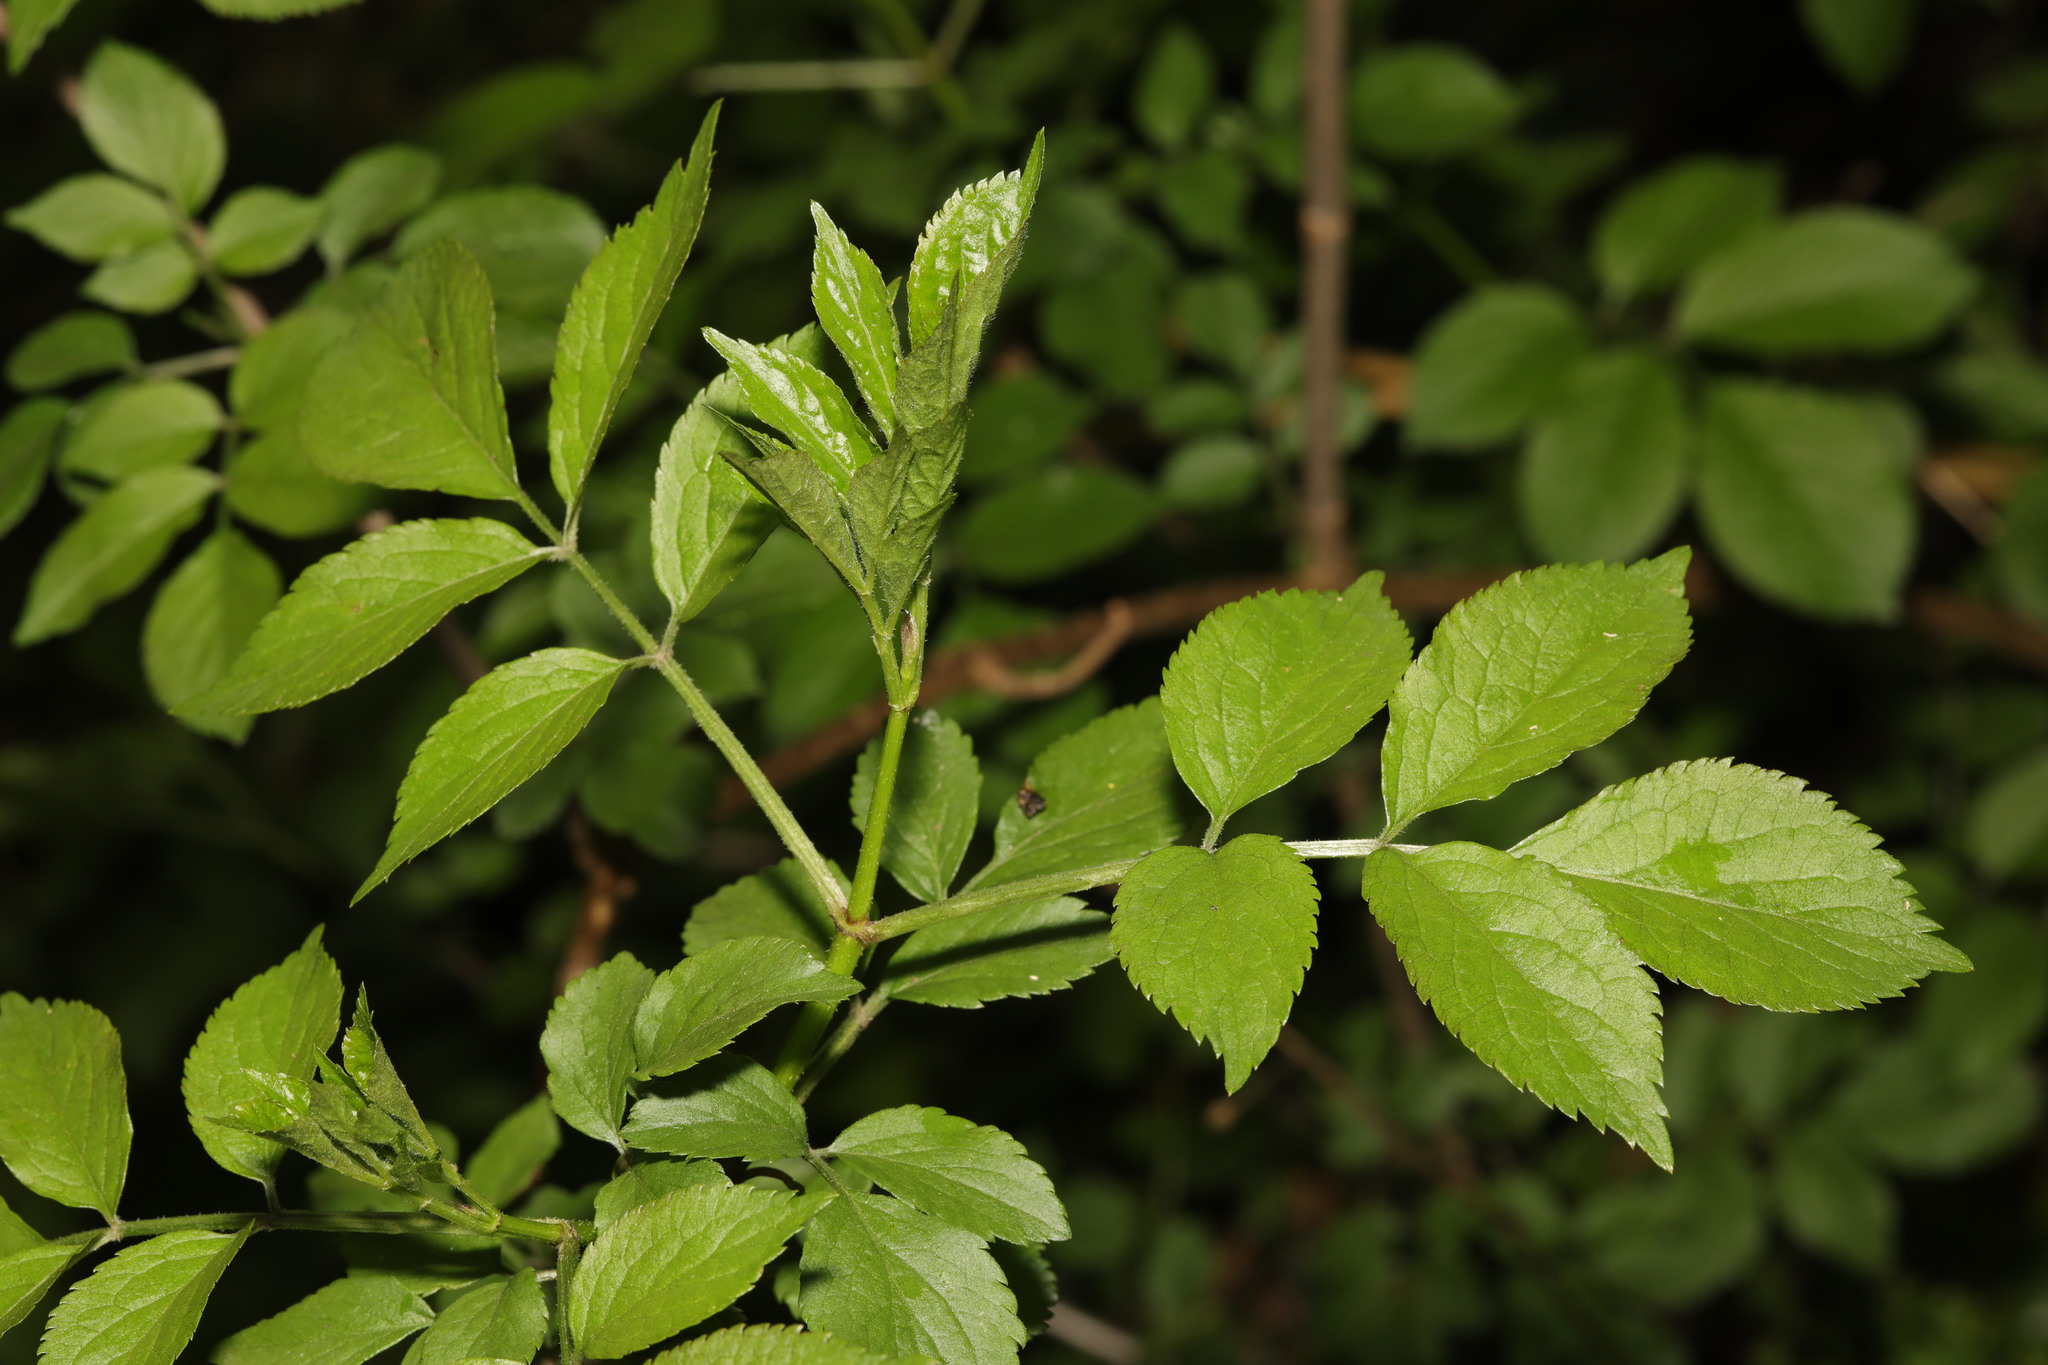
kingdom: Plantae
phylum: Tracheophyta
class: Magnoliopsida
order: Dipsacales
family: Viburnaceae
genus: Sambucus
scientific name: Sambucus nigra
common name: Elder
